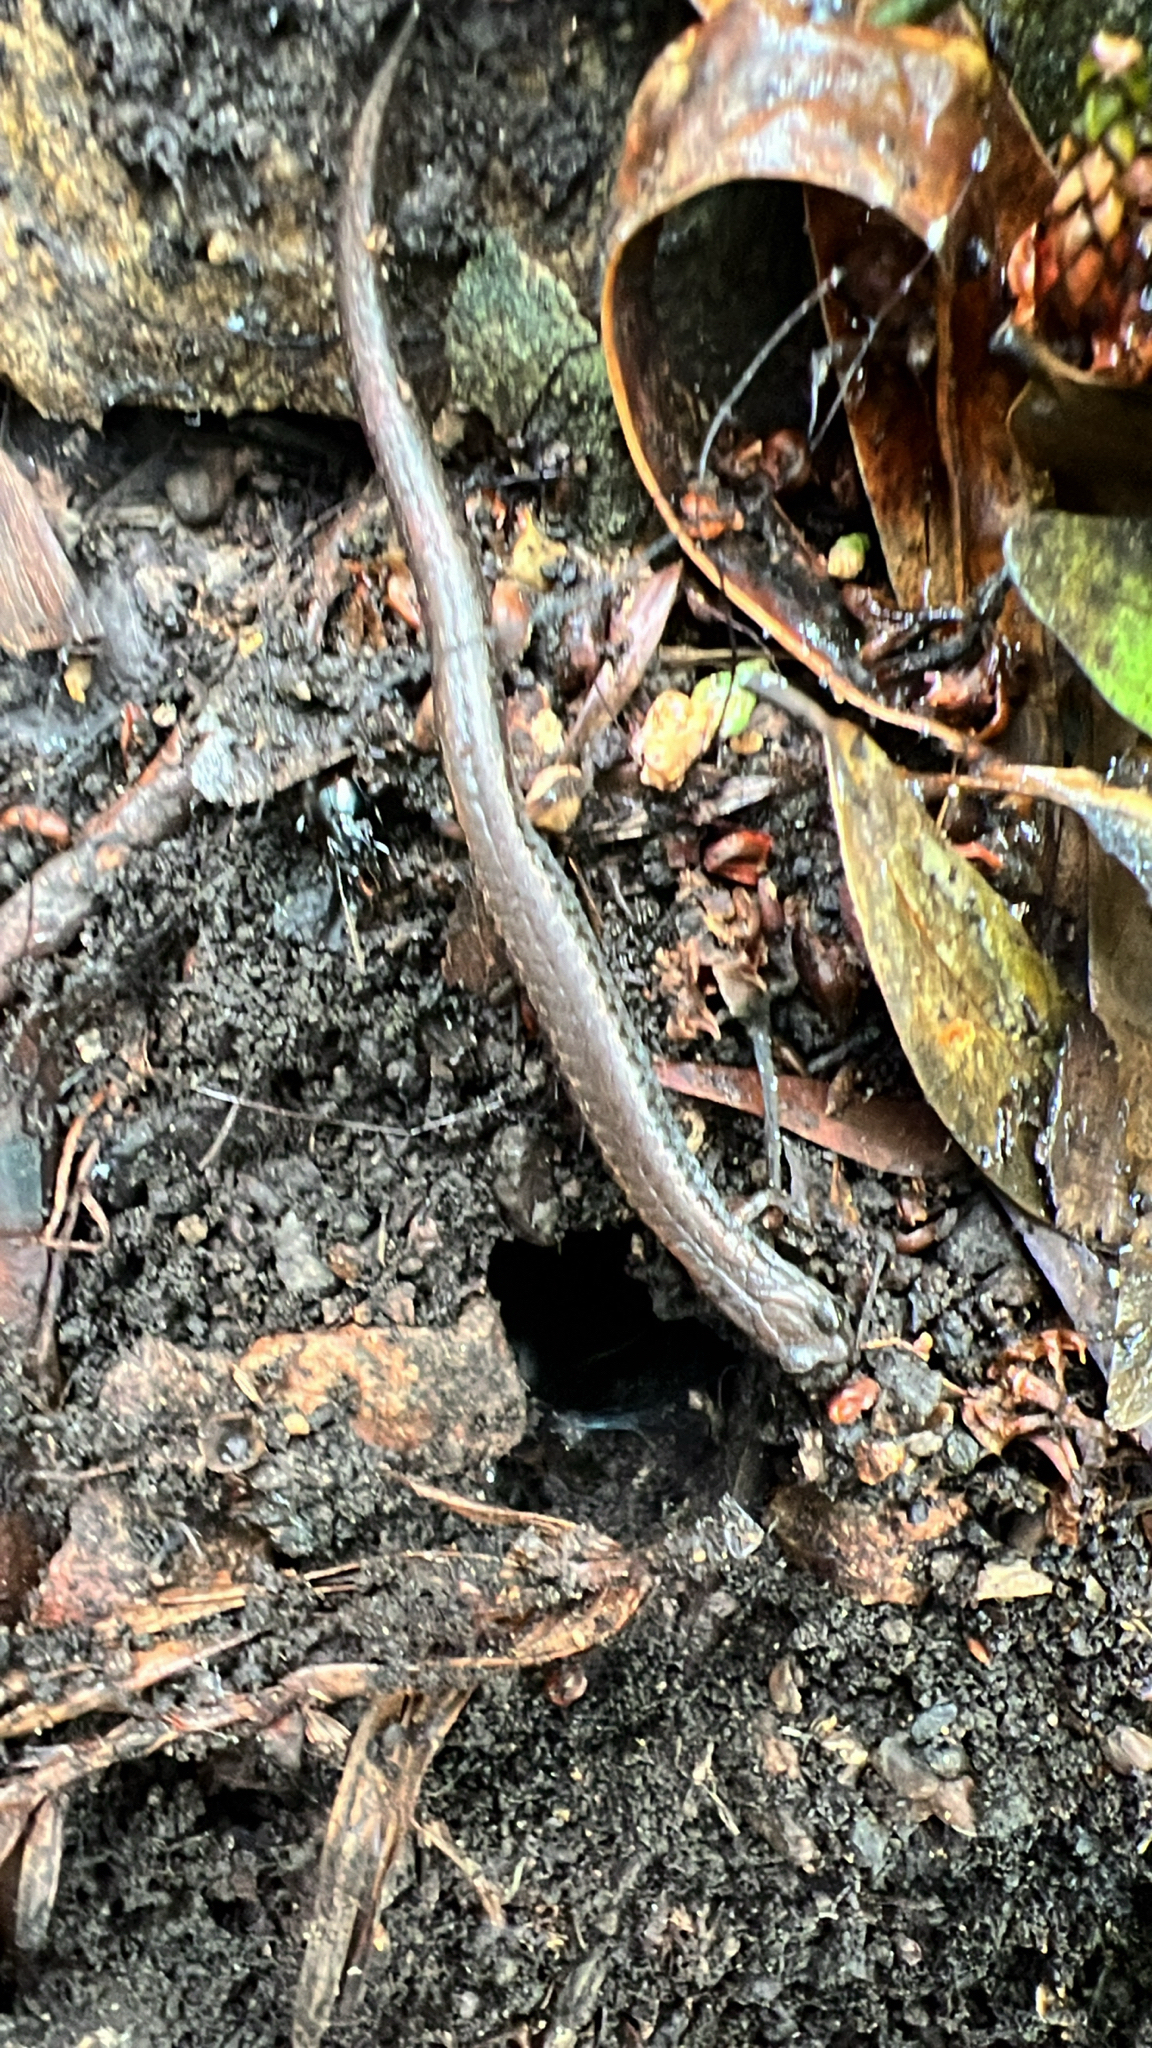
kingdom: Animalia
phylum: Chordata
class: Amphibia
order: Caudata
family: Plethodontidae
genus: Batrachoseps
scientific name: Batrachoseps attenuatus
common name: California slender salamander
